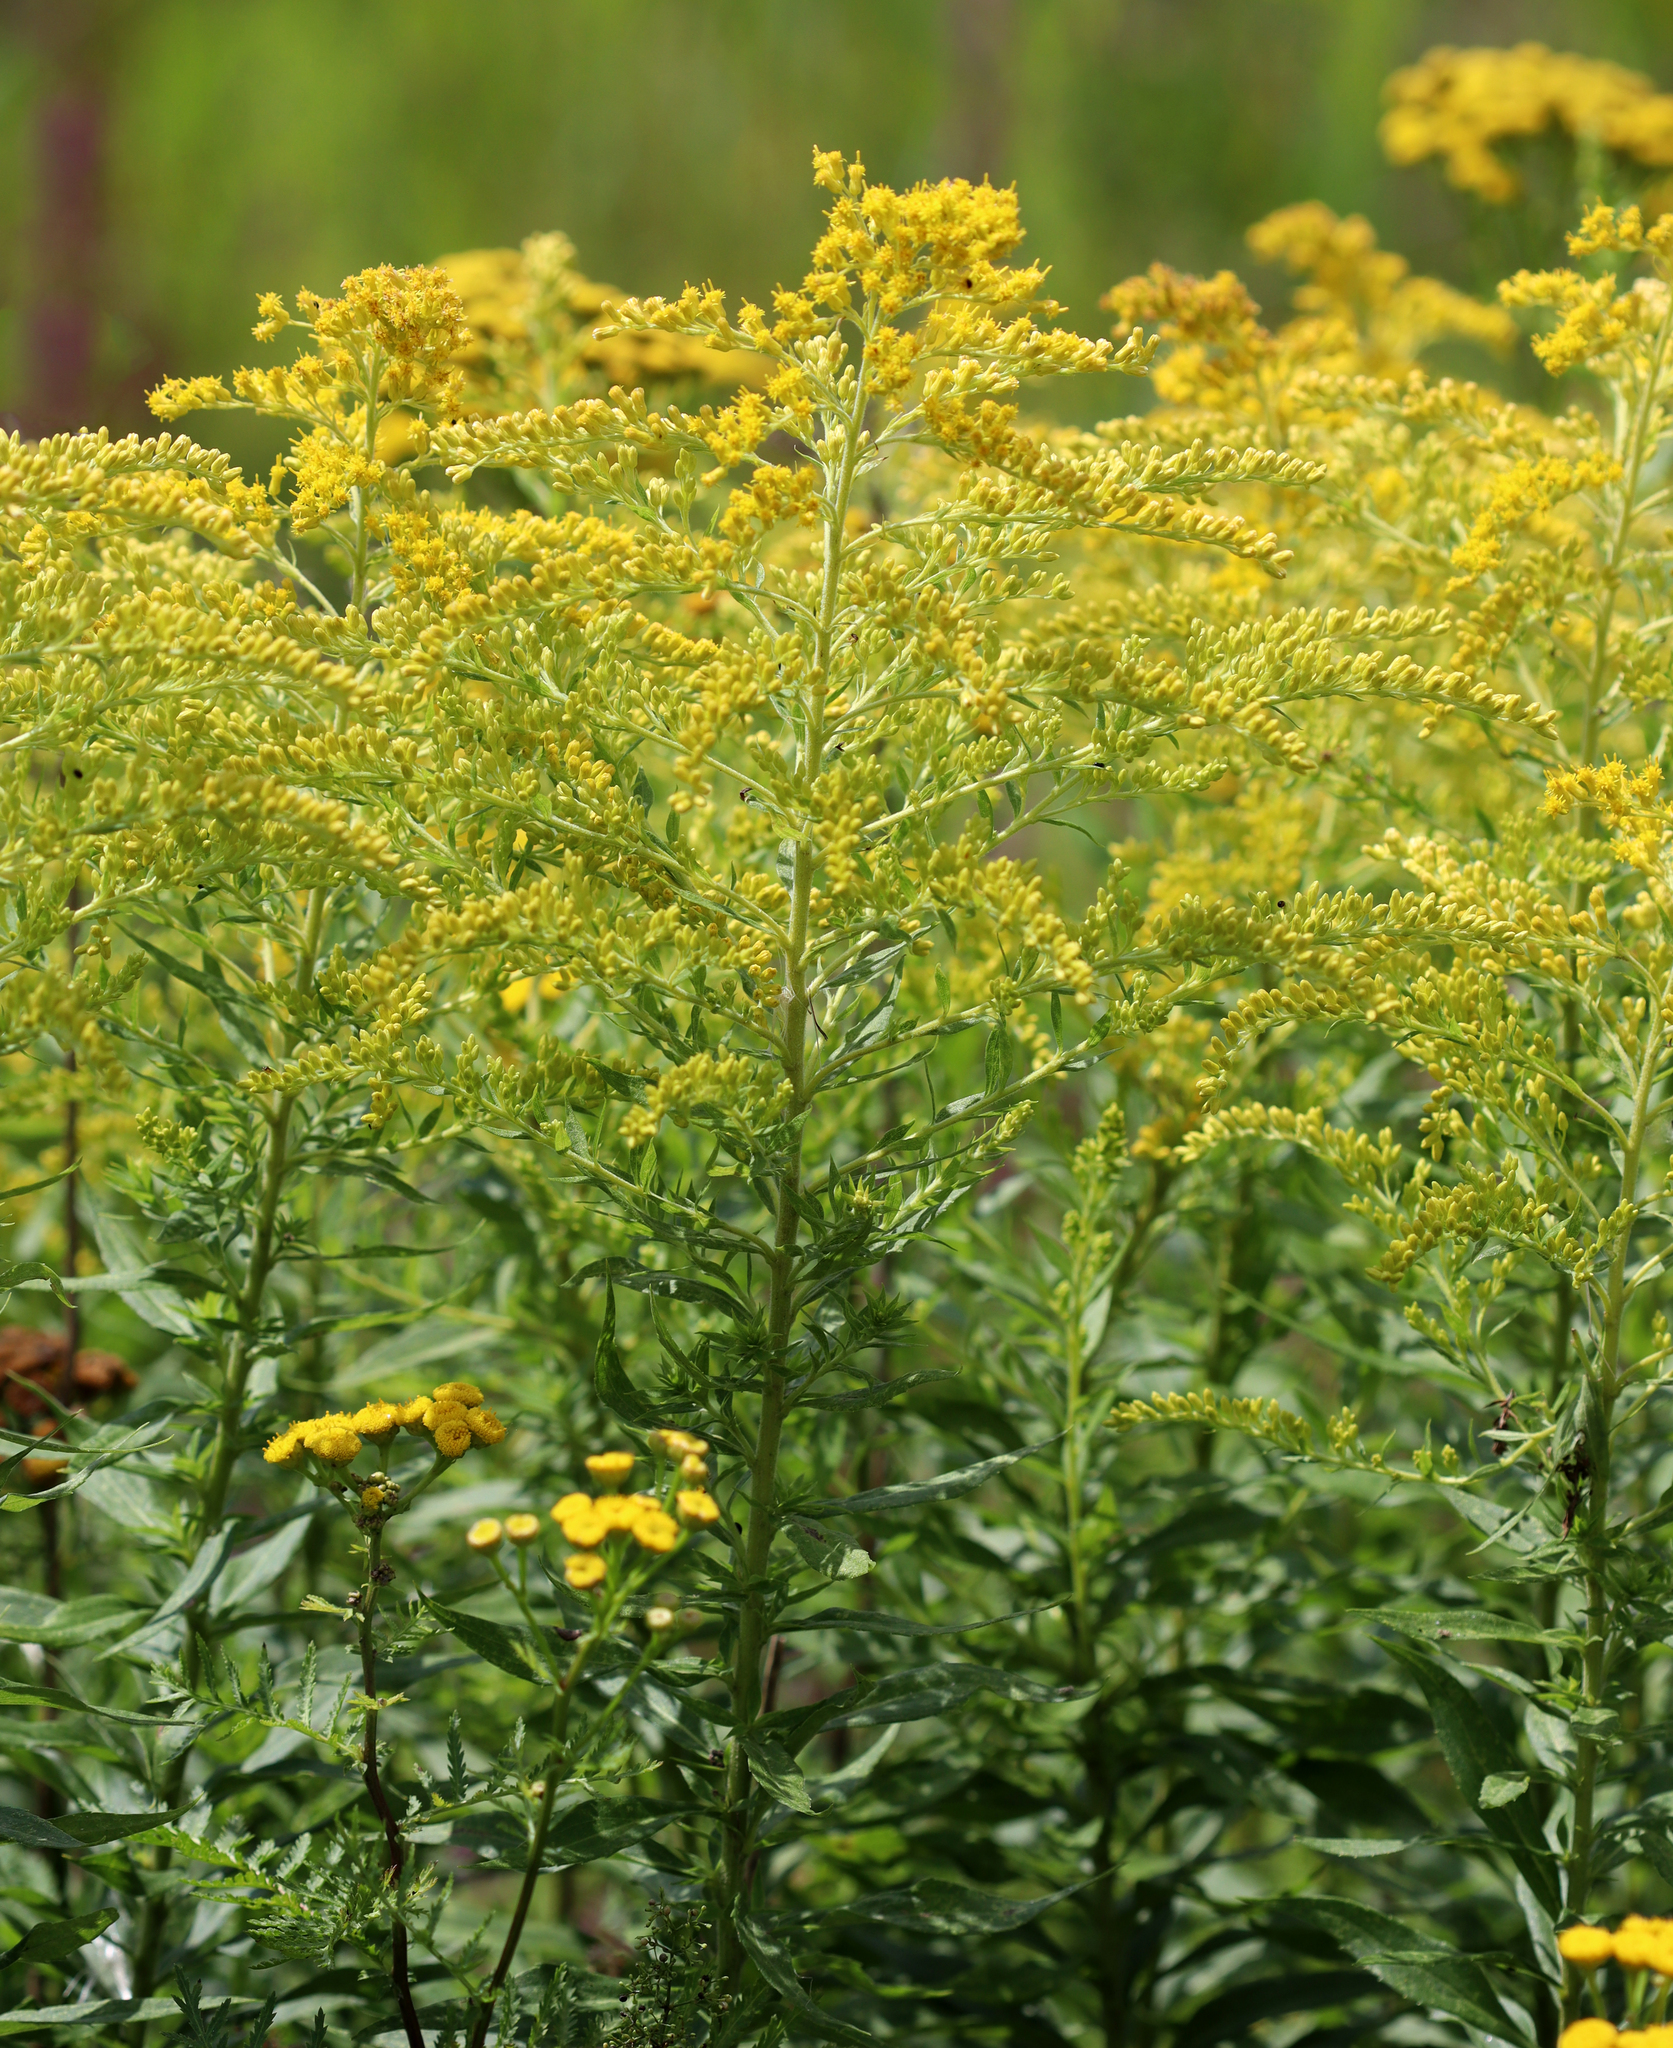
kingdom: Plantae
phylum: Tracheophyta
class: Magnoliopsida
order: Asterales
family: Asteraceae
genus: Solidago
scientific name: Solidago canadensis
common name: Canada goldenrod
